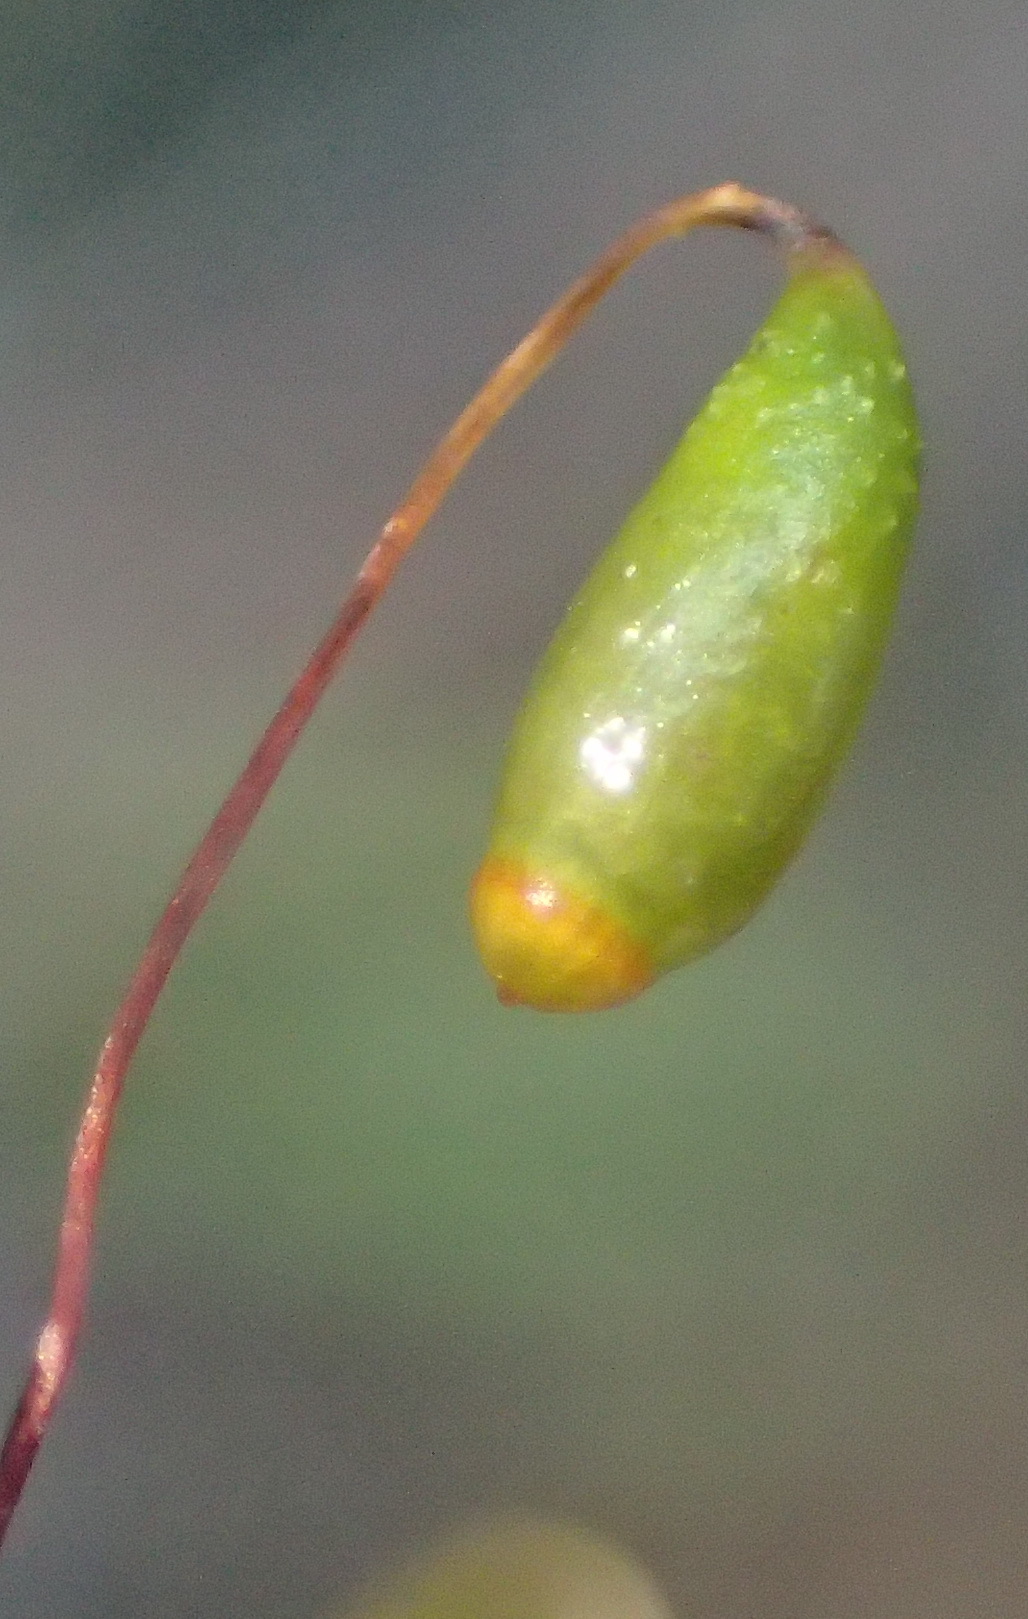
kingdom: Plantae
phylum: Bryophyta
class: Bryopsida
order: Bryales
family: Bryaceae
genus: Rosulabryum
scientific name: Rosulabryum canariense
